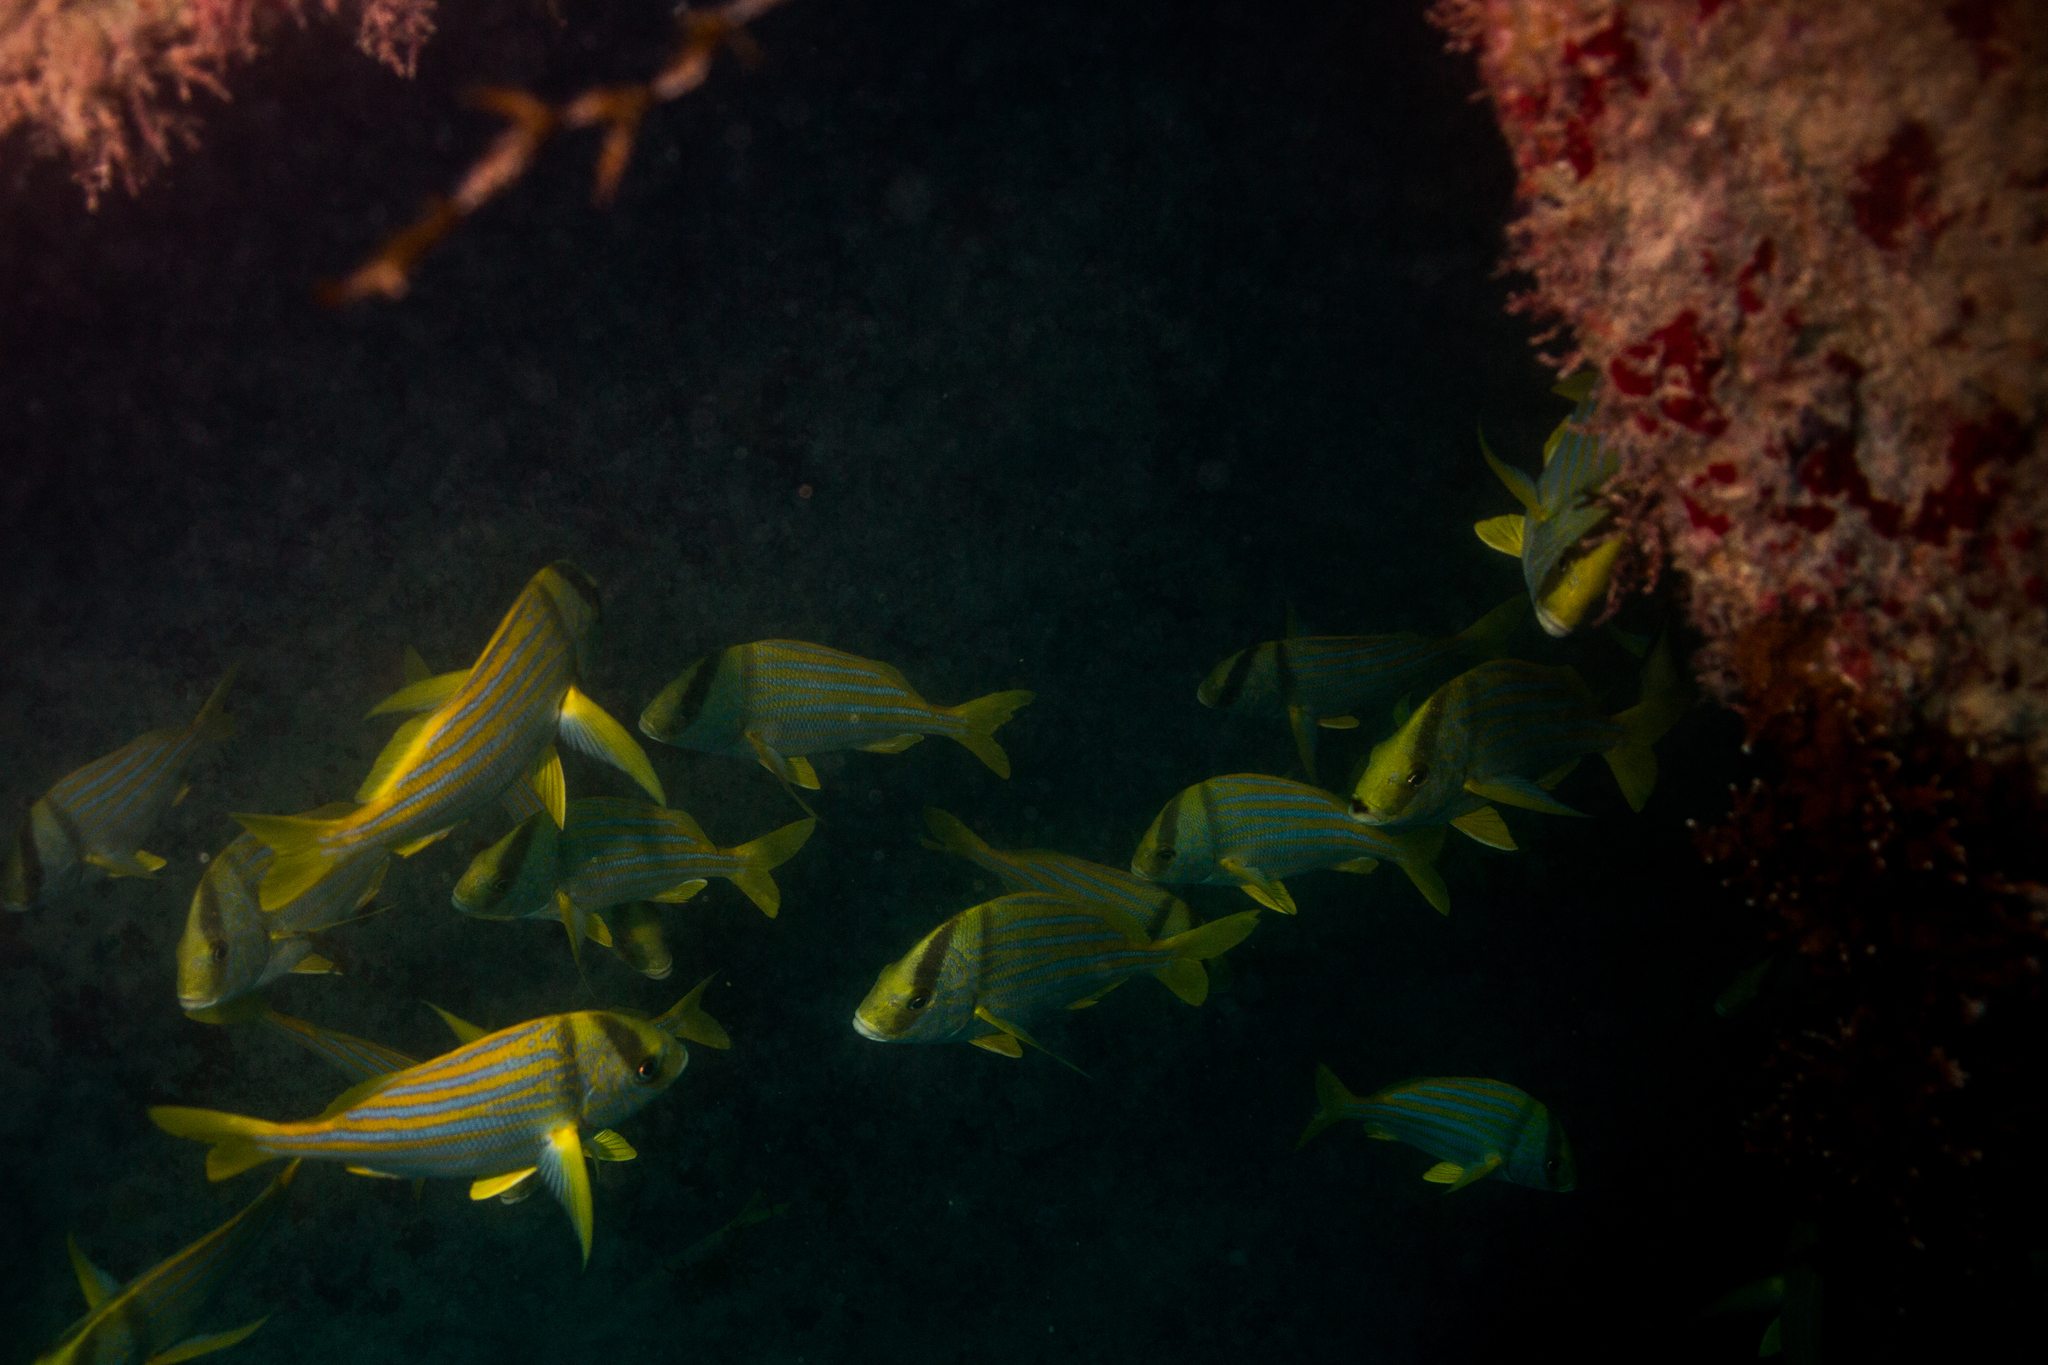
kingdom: Animalia
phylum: Chordata
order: Perciformes
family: Haemulidae
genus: Anisotremus
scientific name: Anisotremus virginicus
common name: Porkfish
